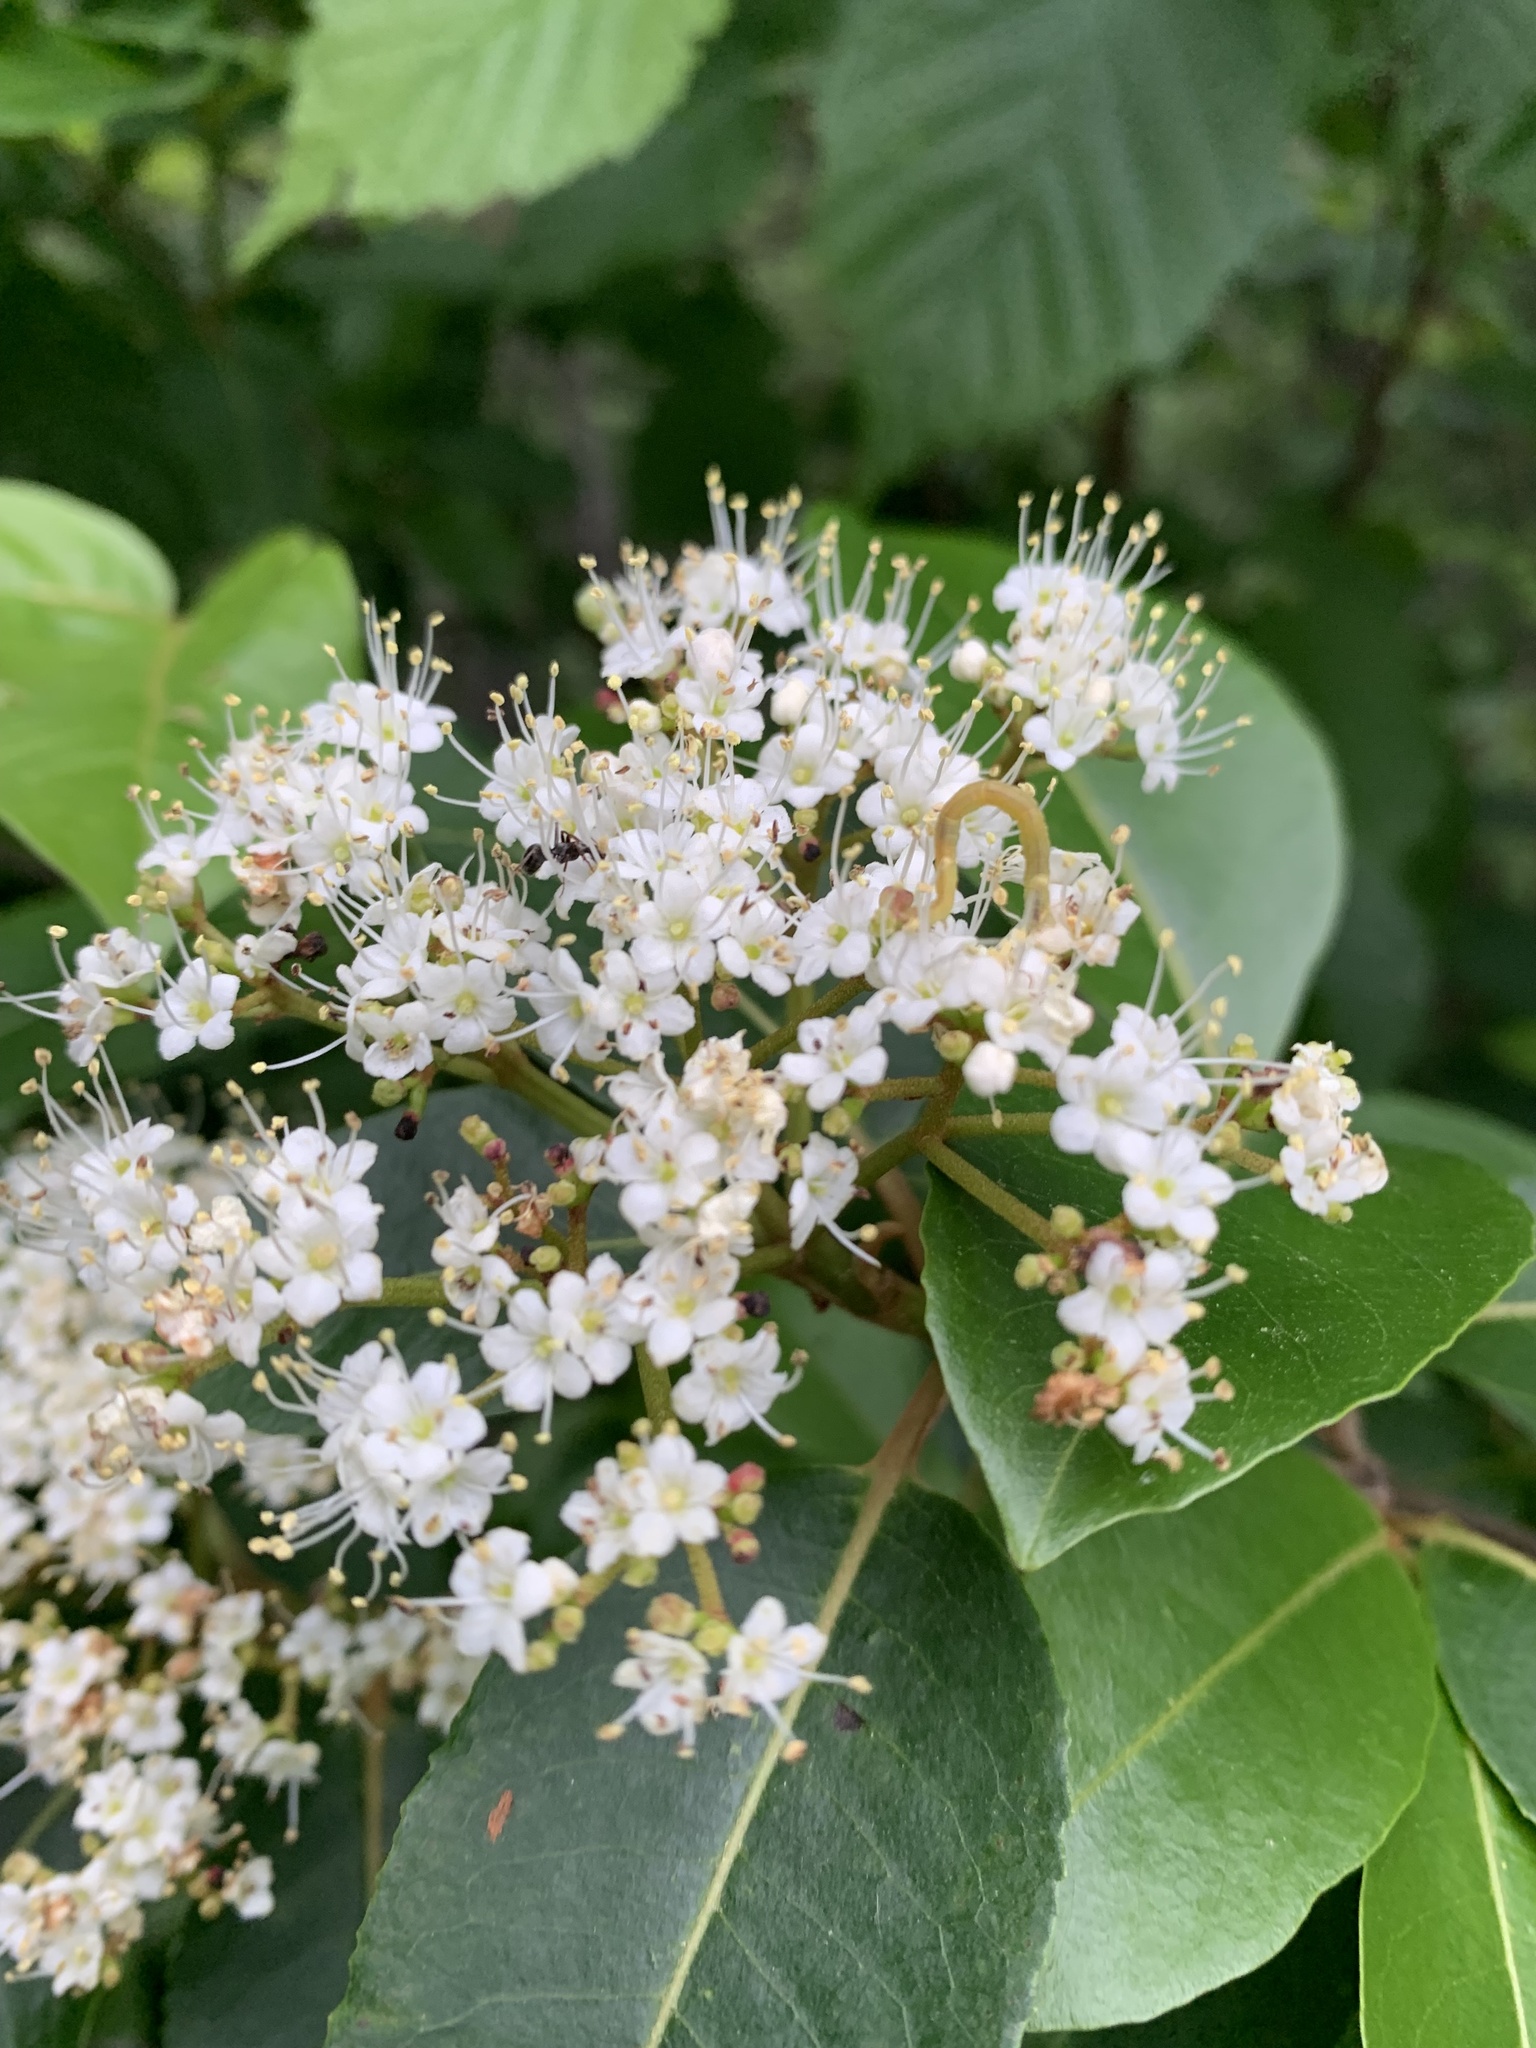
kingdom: Plantae
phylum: Tracheophyta
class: Magnoliopsida
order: Dipsacales
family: Viburnaceae
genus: Viburnum
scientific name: Viburnum cassinoides
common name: Swamp haw
